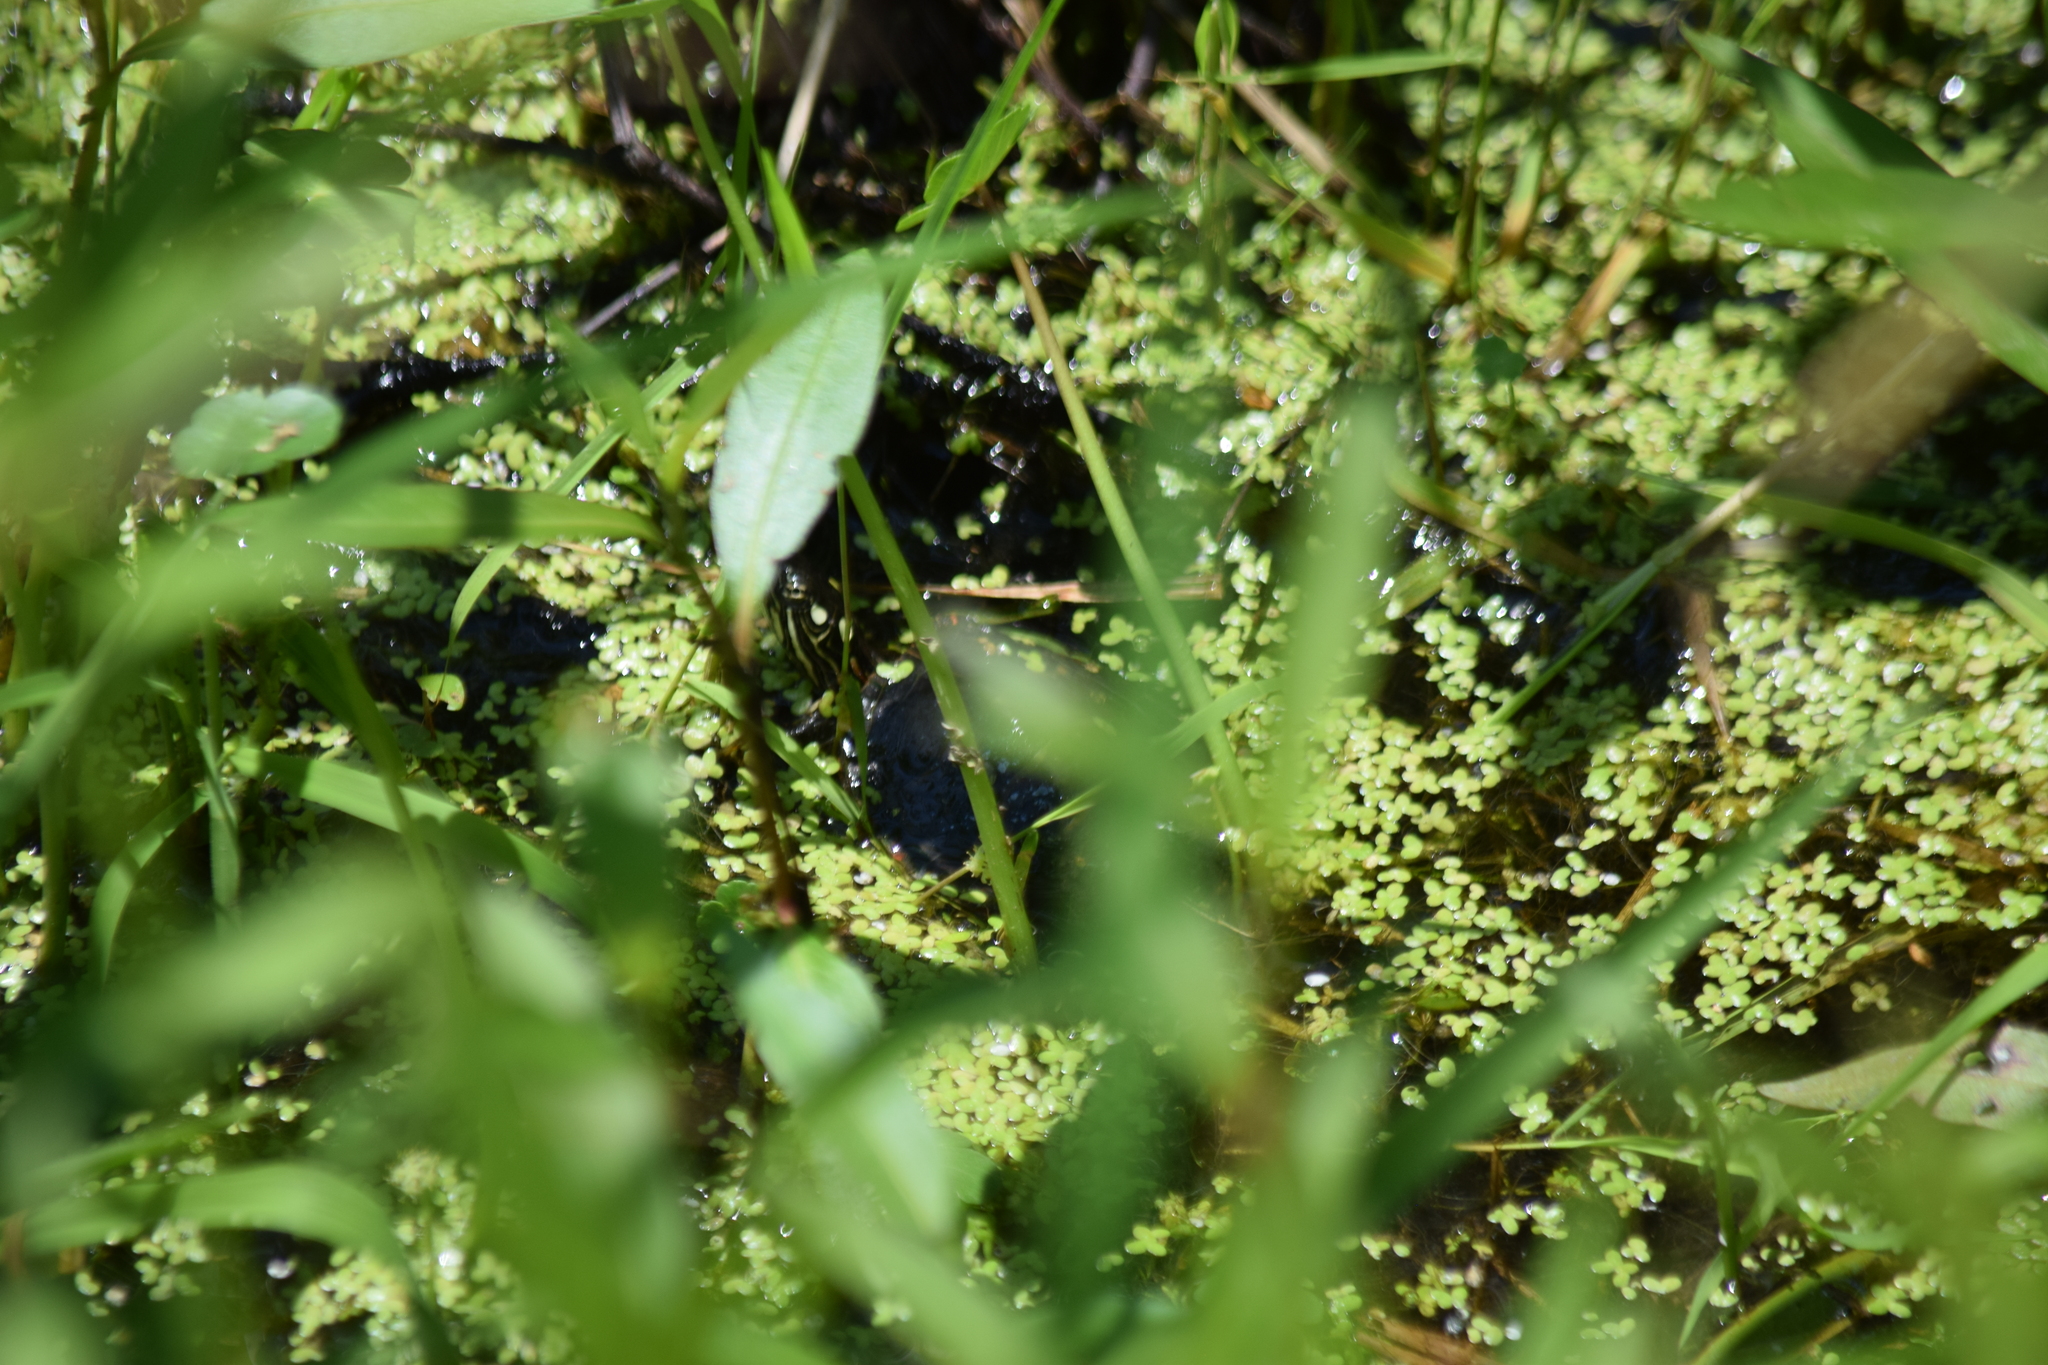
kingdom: Animalia
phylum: Chordata
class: Testudines
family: Emydidae
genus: Chrysemys
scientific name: Chrysemys picta
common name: Painted turtle
